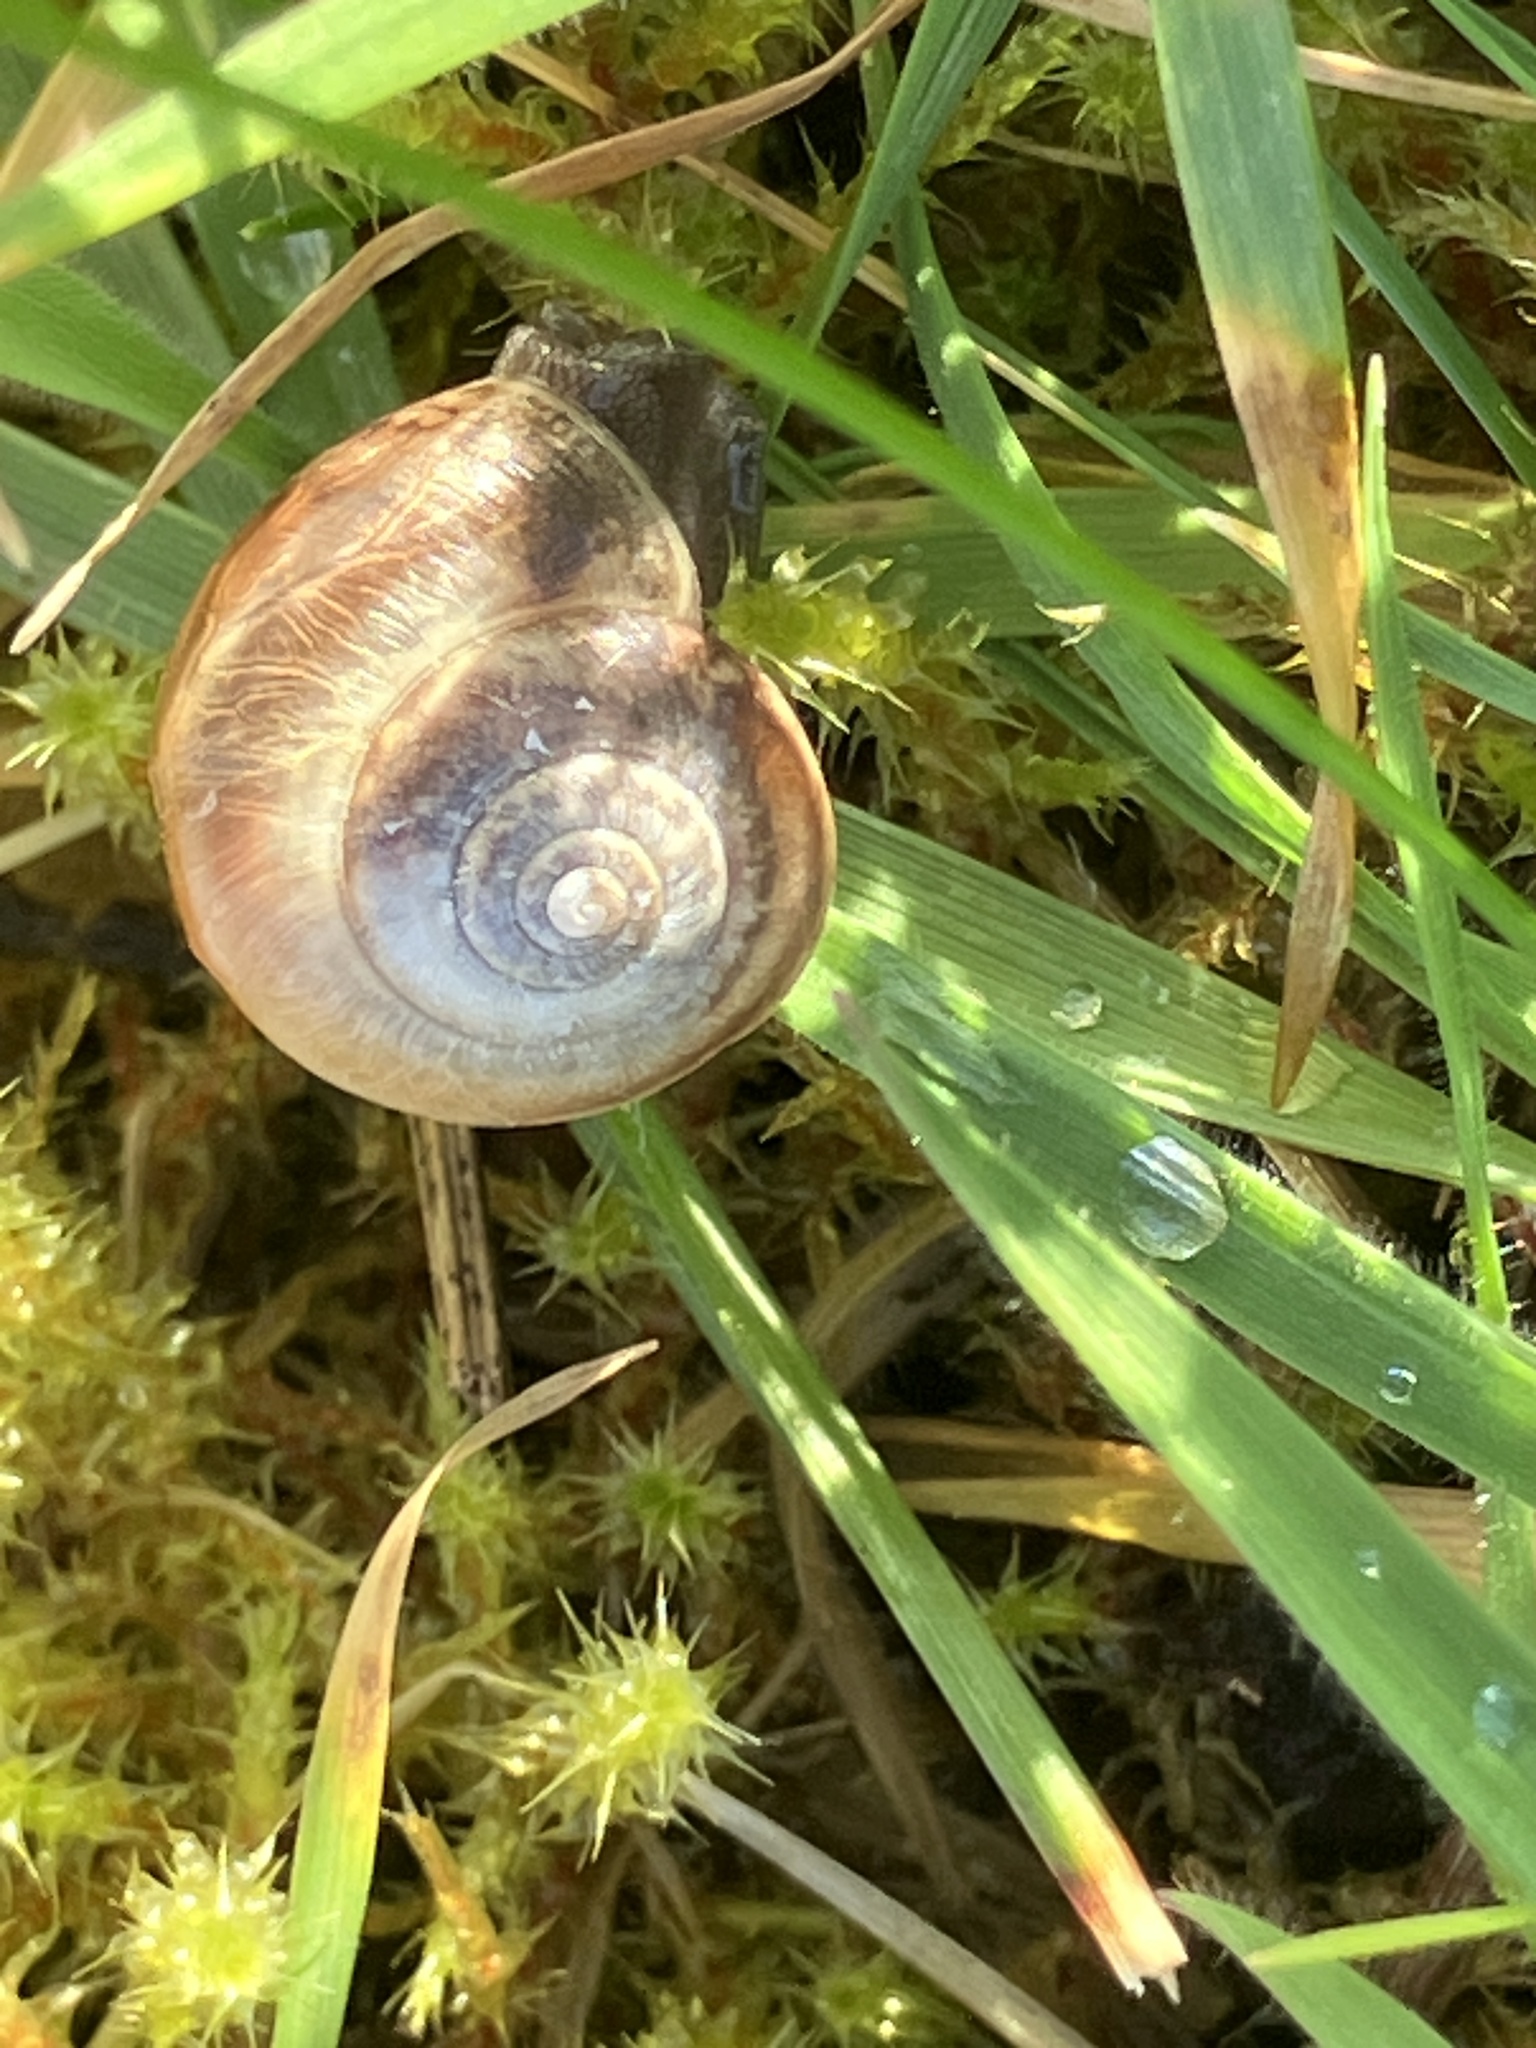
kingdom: Animalia
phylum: Mollusca
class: Gastropoda
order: Stylommatophora
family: Hygromiidae
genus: Monacha
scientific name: Monacha cantiana
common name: Kentish snail
